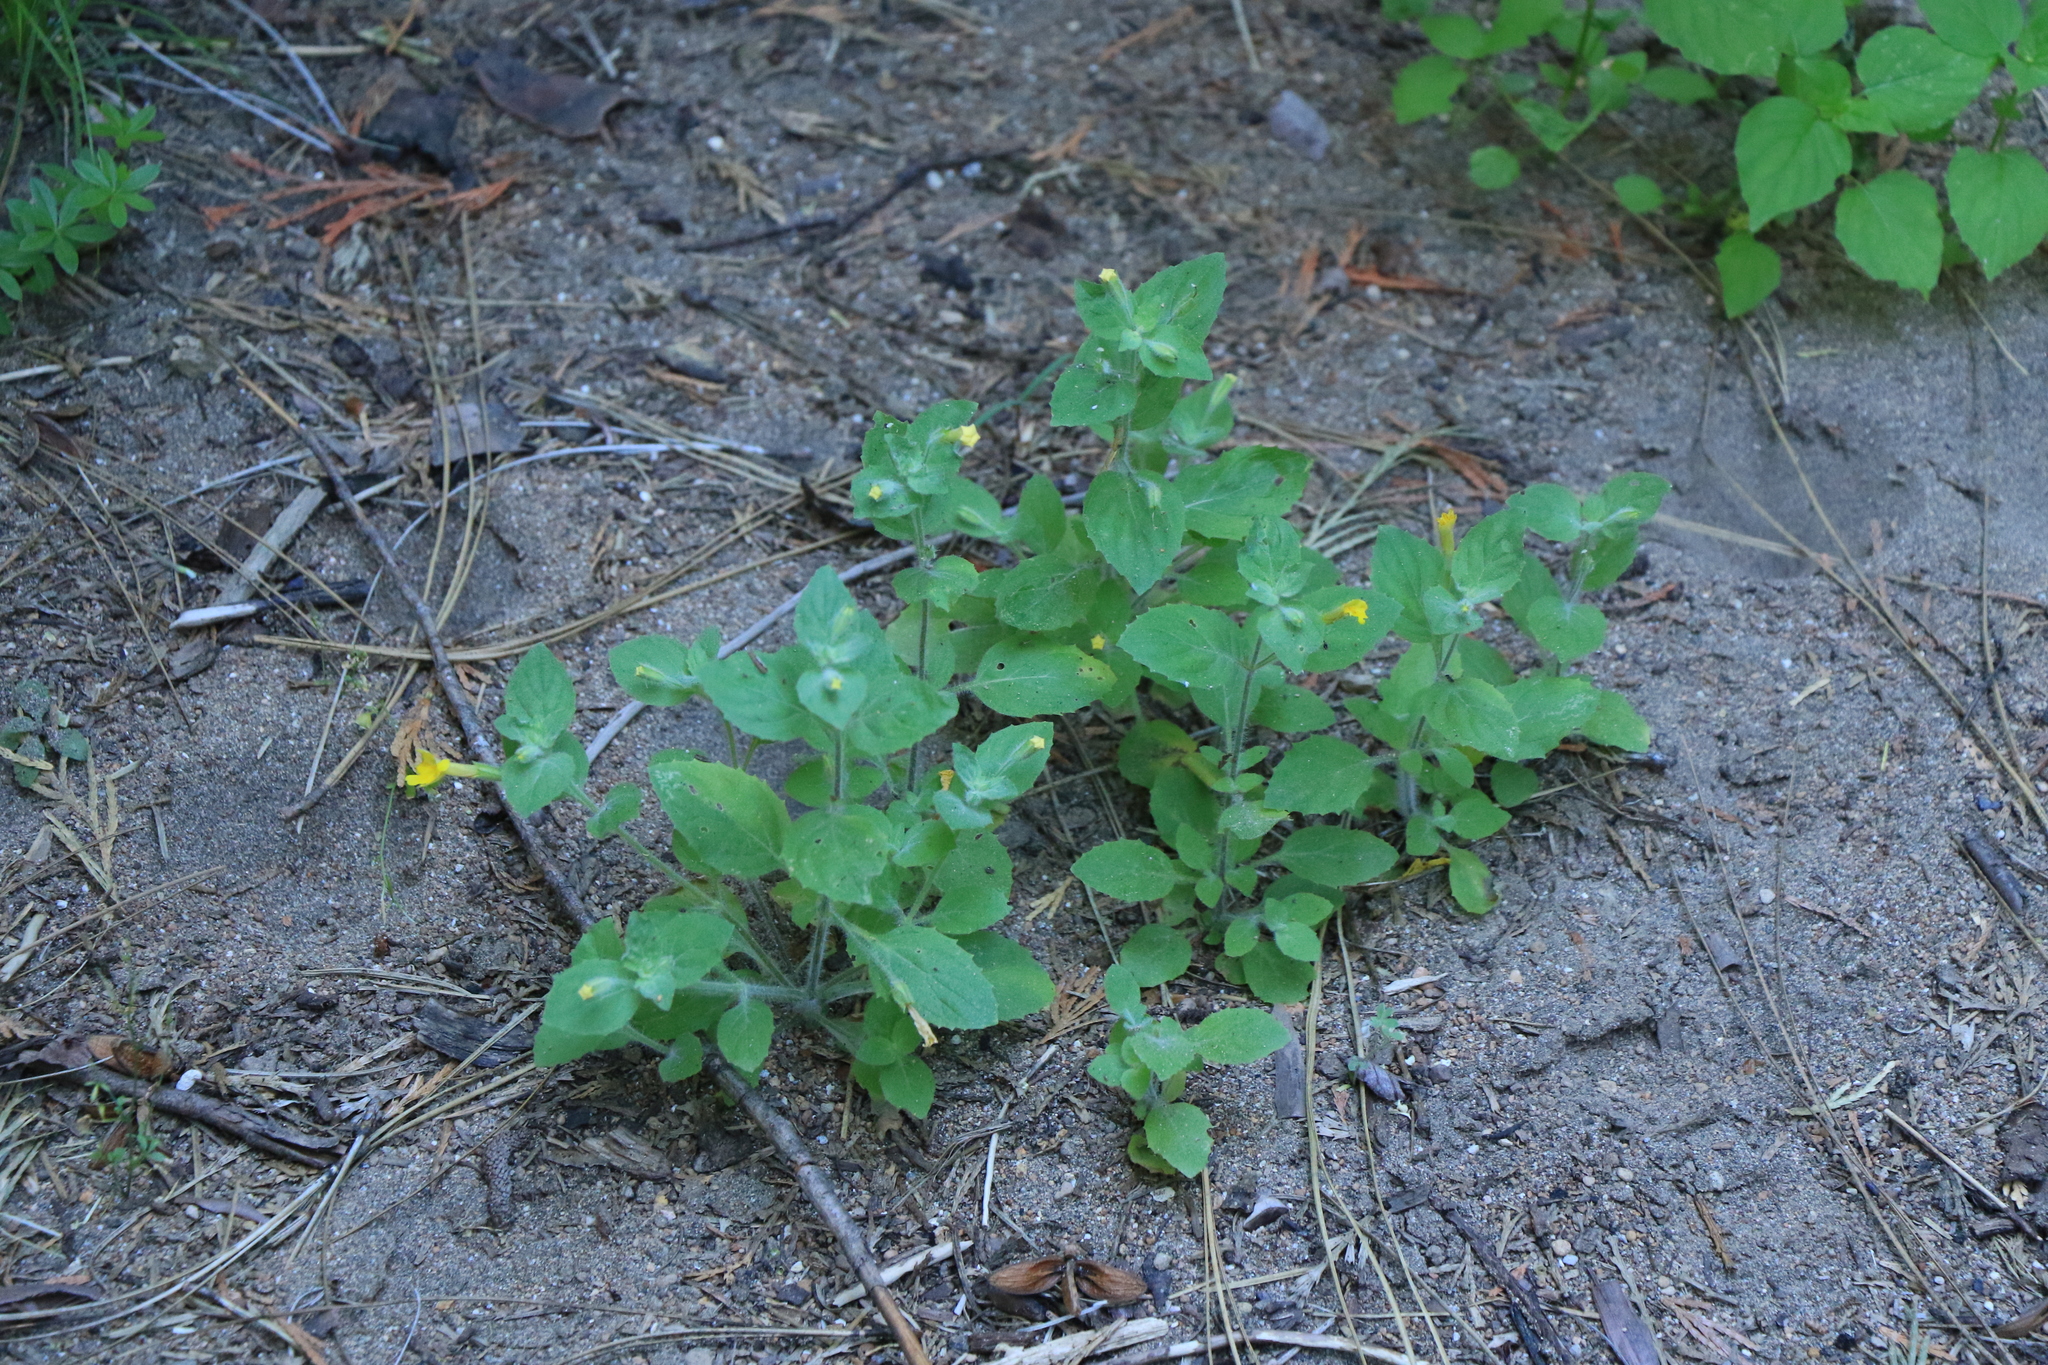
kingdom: Plantae
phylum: Tracheophyta
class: Magnoliopsida
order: Lamiales
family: Phrymaceae
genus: Erythranthe
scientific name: Erythranthe moschata
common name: Muskflower
